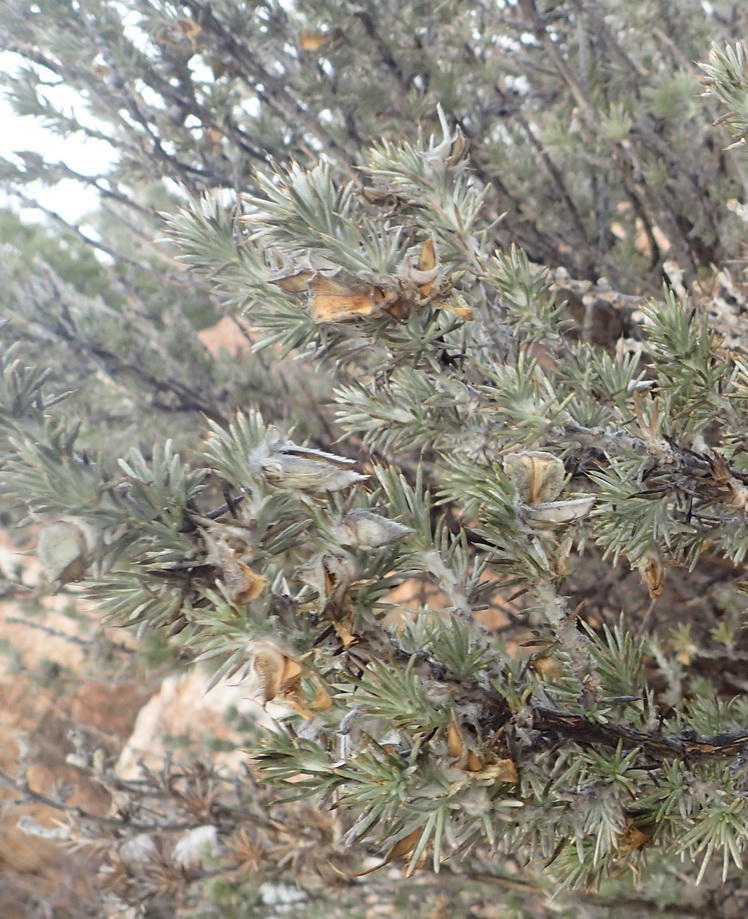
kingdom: Plantae
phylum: Tracheophyta
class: Magnoliopsida
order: Fabales
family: Fabaceae
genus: Aspalathus
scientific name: Aspalathus hystrix
